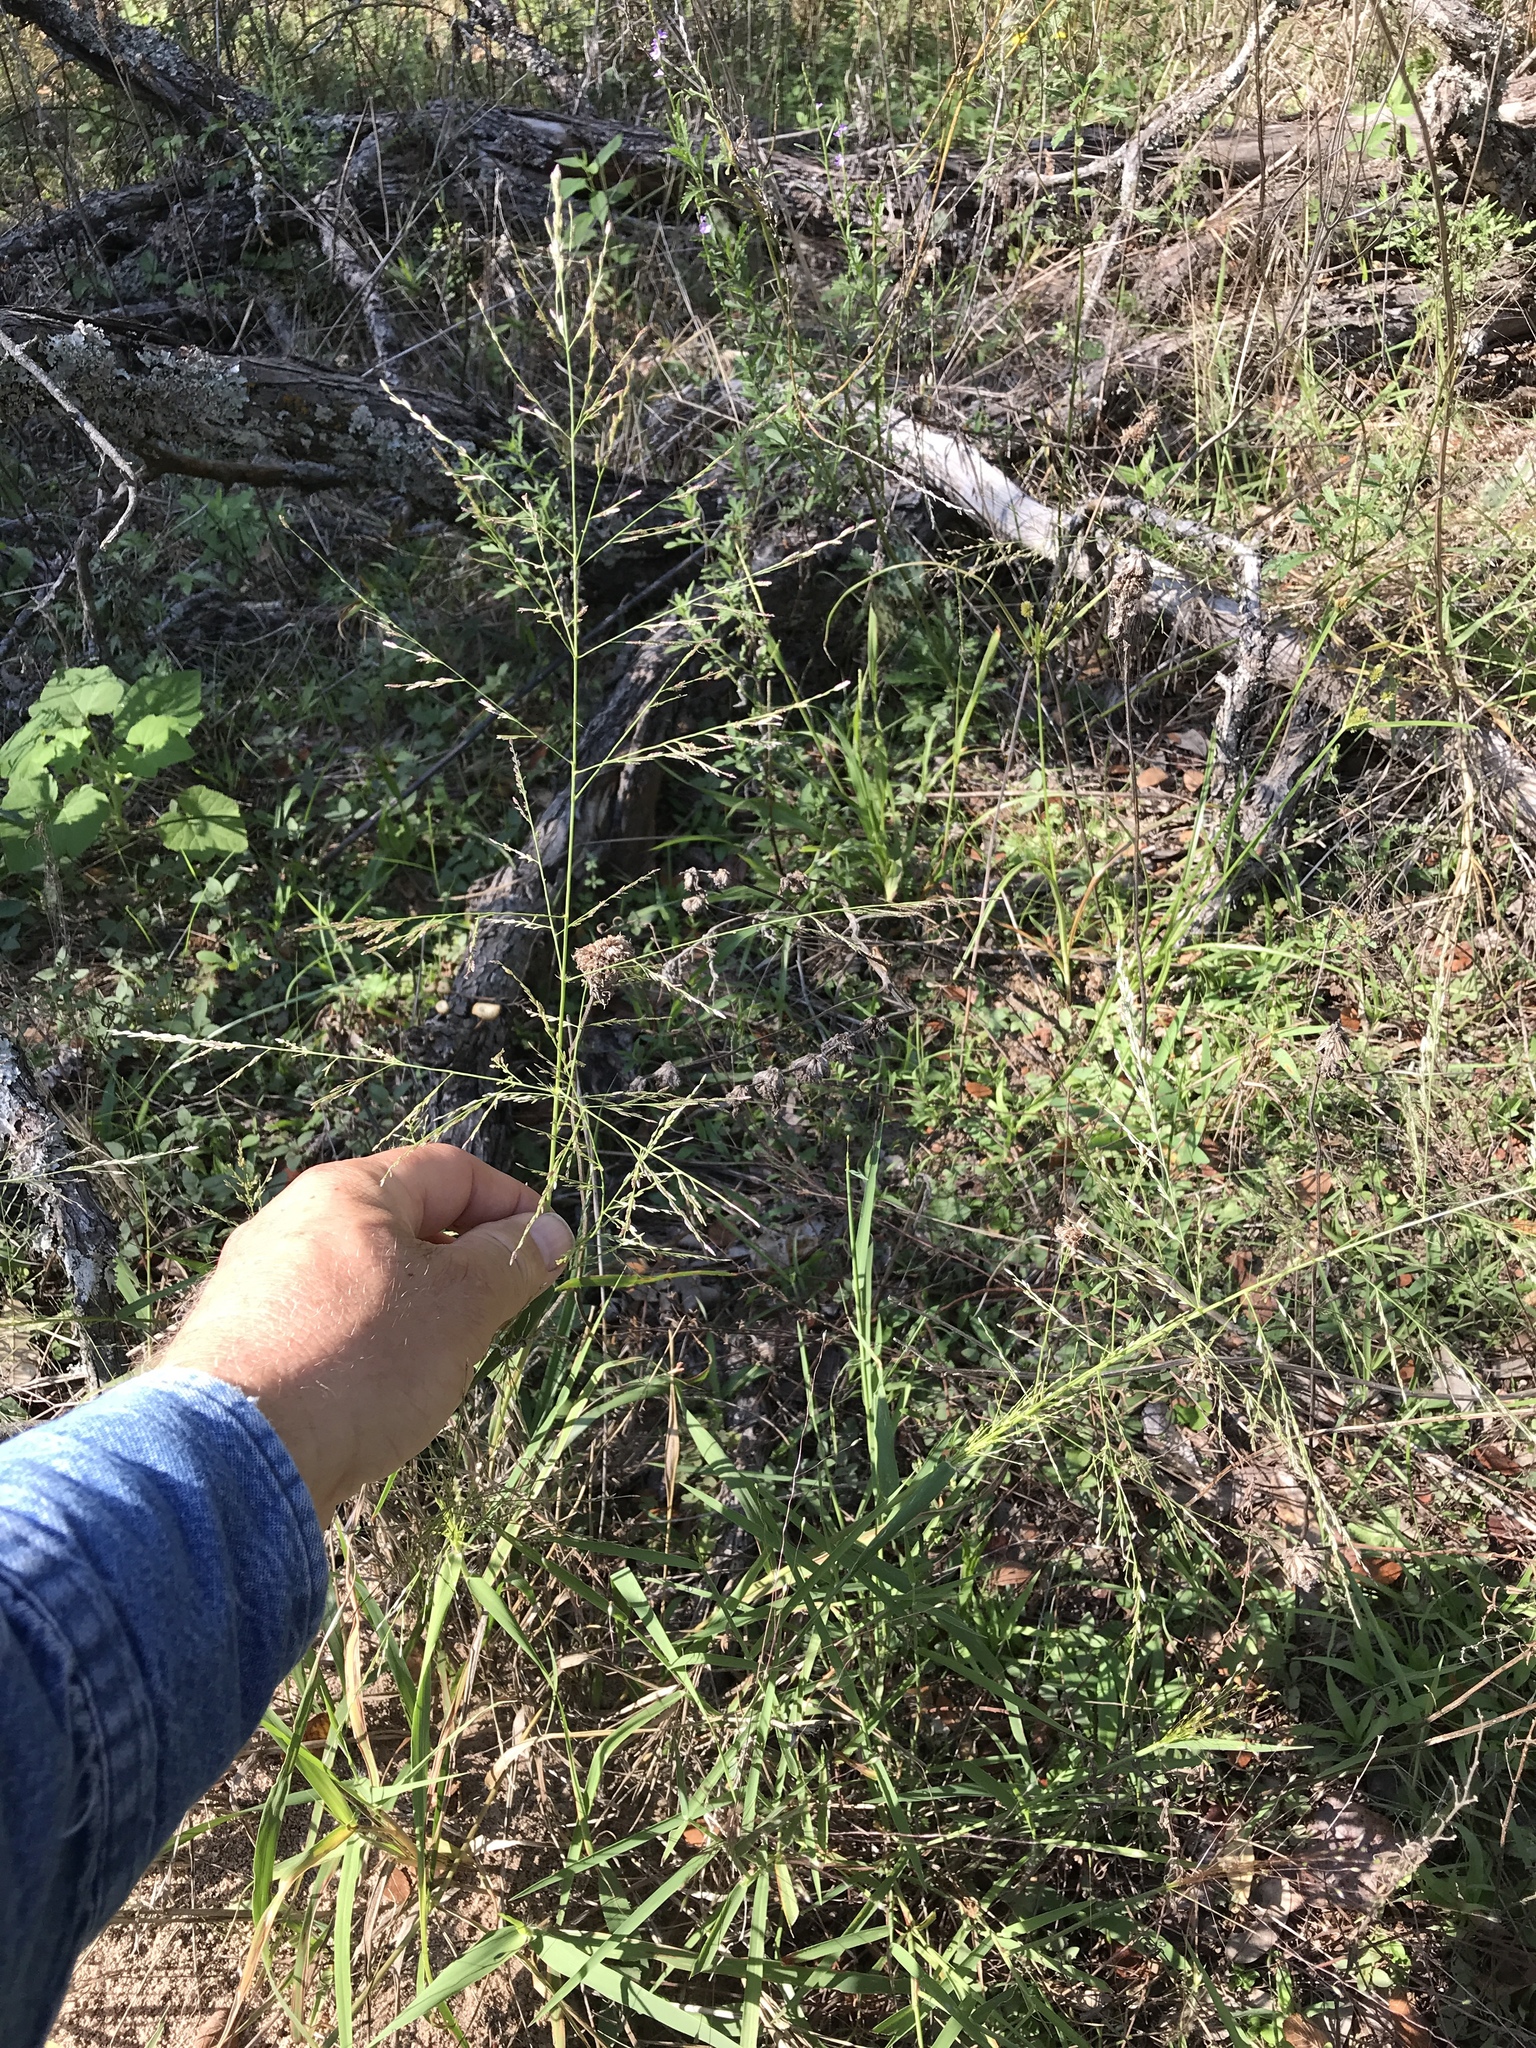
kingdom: Plantae
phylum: Tracheophyta
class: Liliopsida
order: Poales
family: Poaceae
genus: Eragrostis
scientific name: Eragrostis curtipedicellata
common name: Gummy love grass
